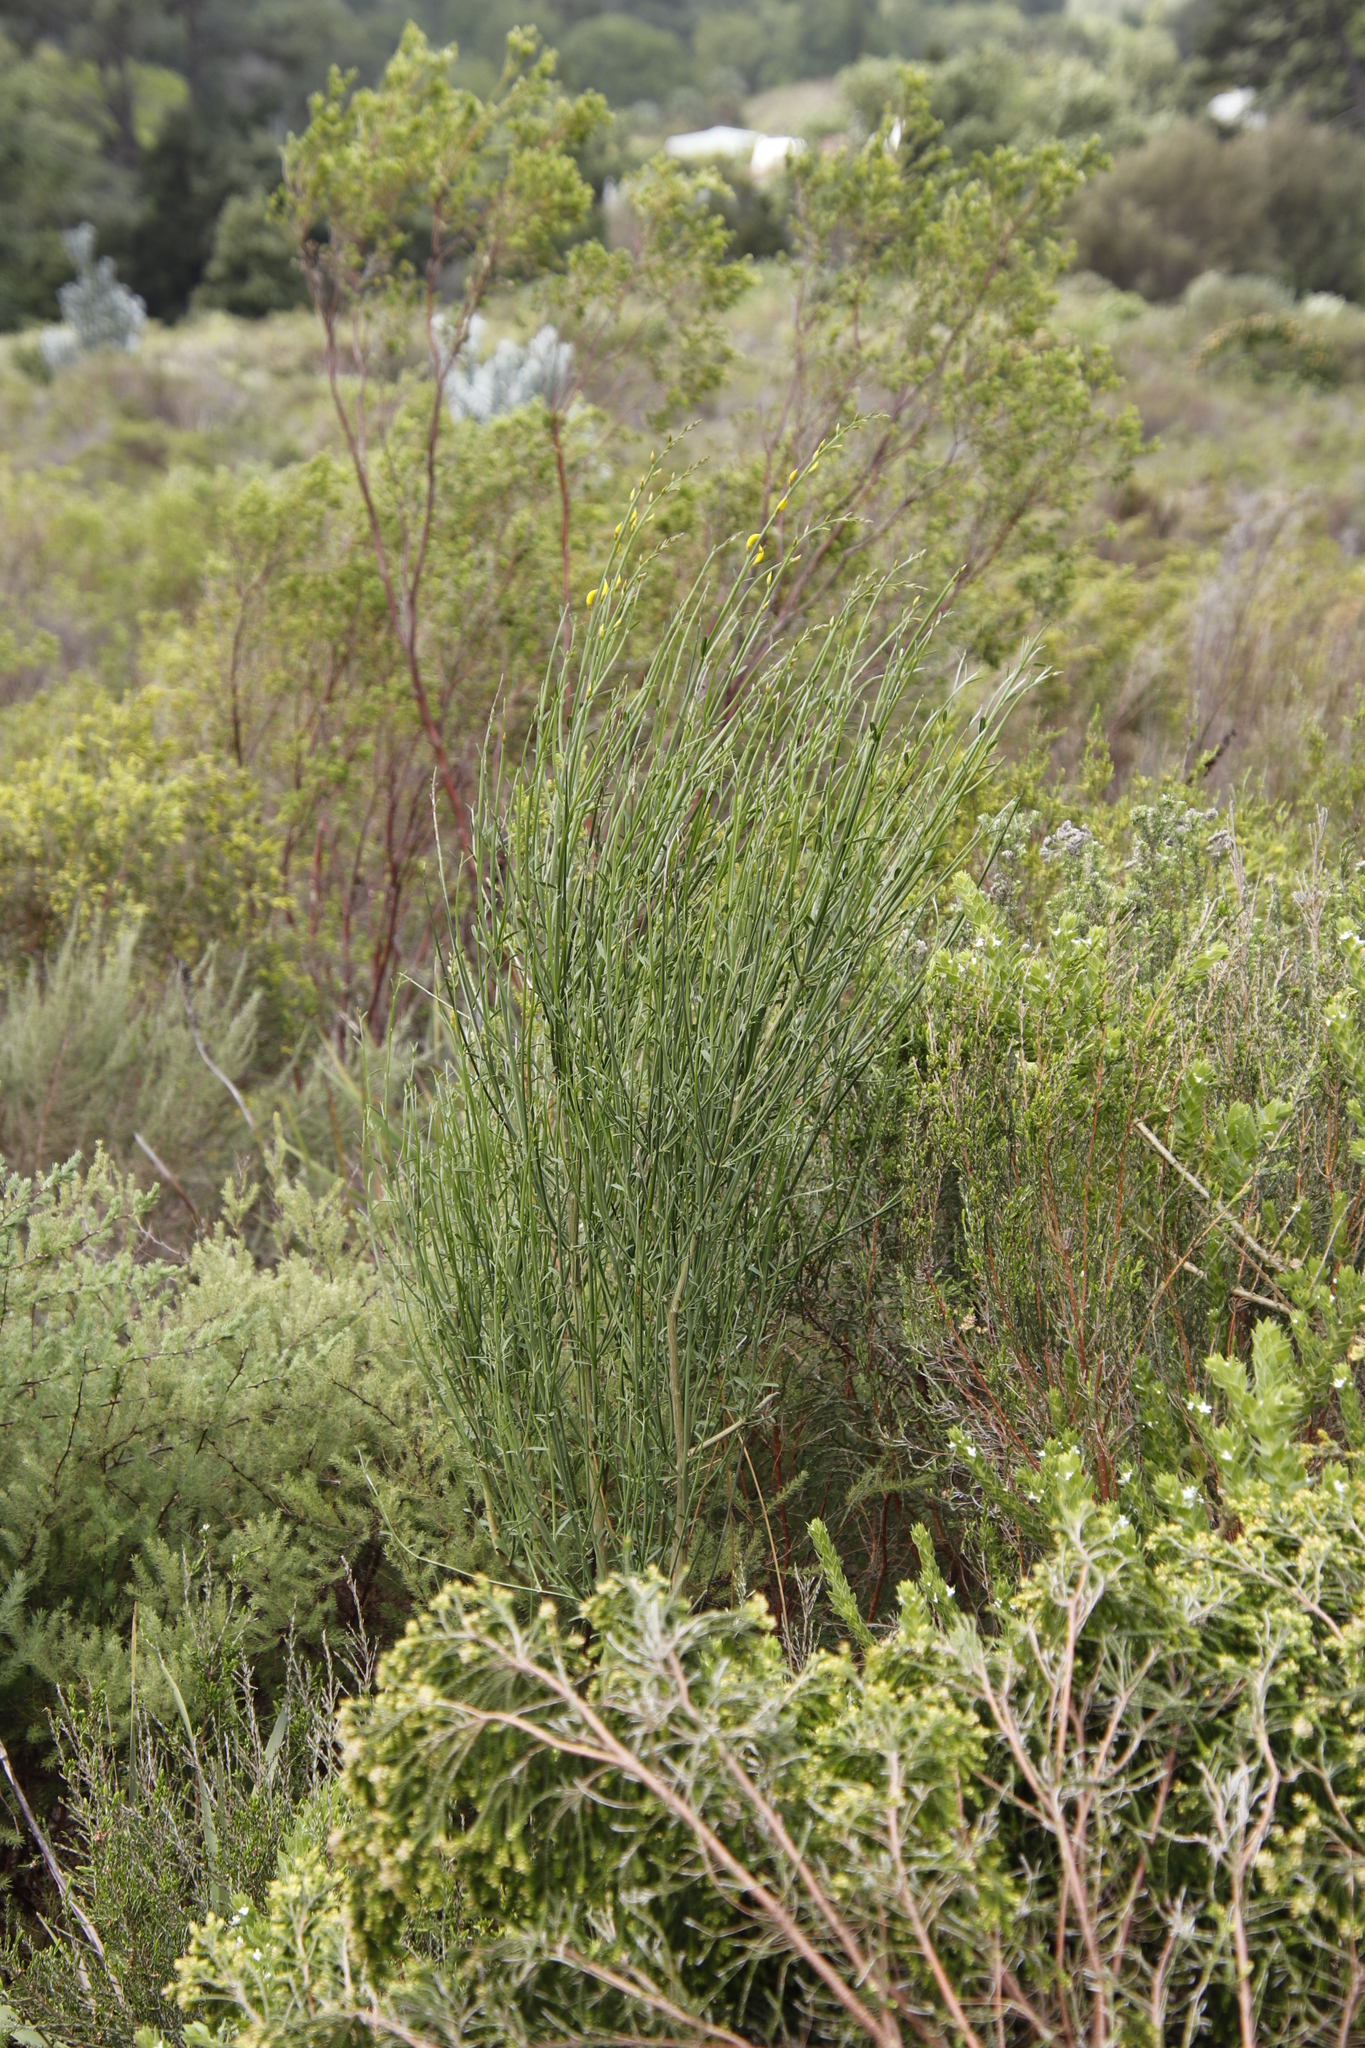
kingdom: Plantae
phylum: Tracheophyta
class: Magnoliopsida
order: Fabales
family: Fabaceae
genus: Spartium
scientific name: Spartium junceum
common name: Spanish broom
